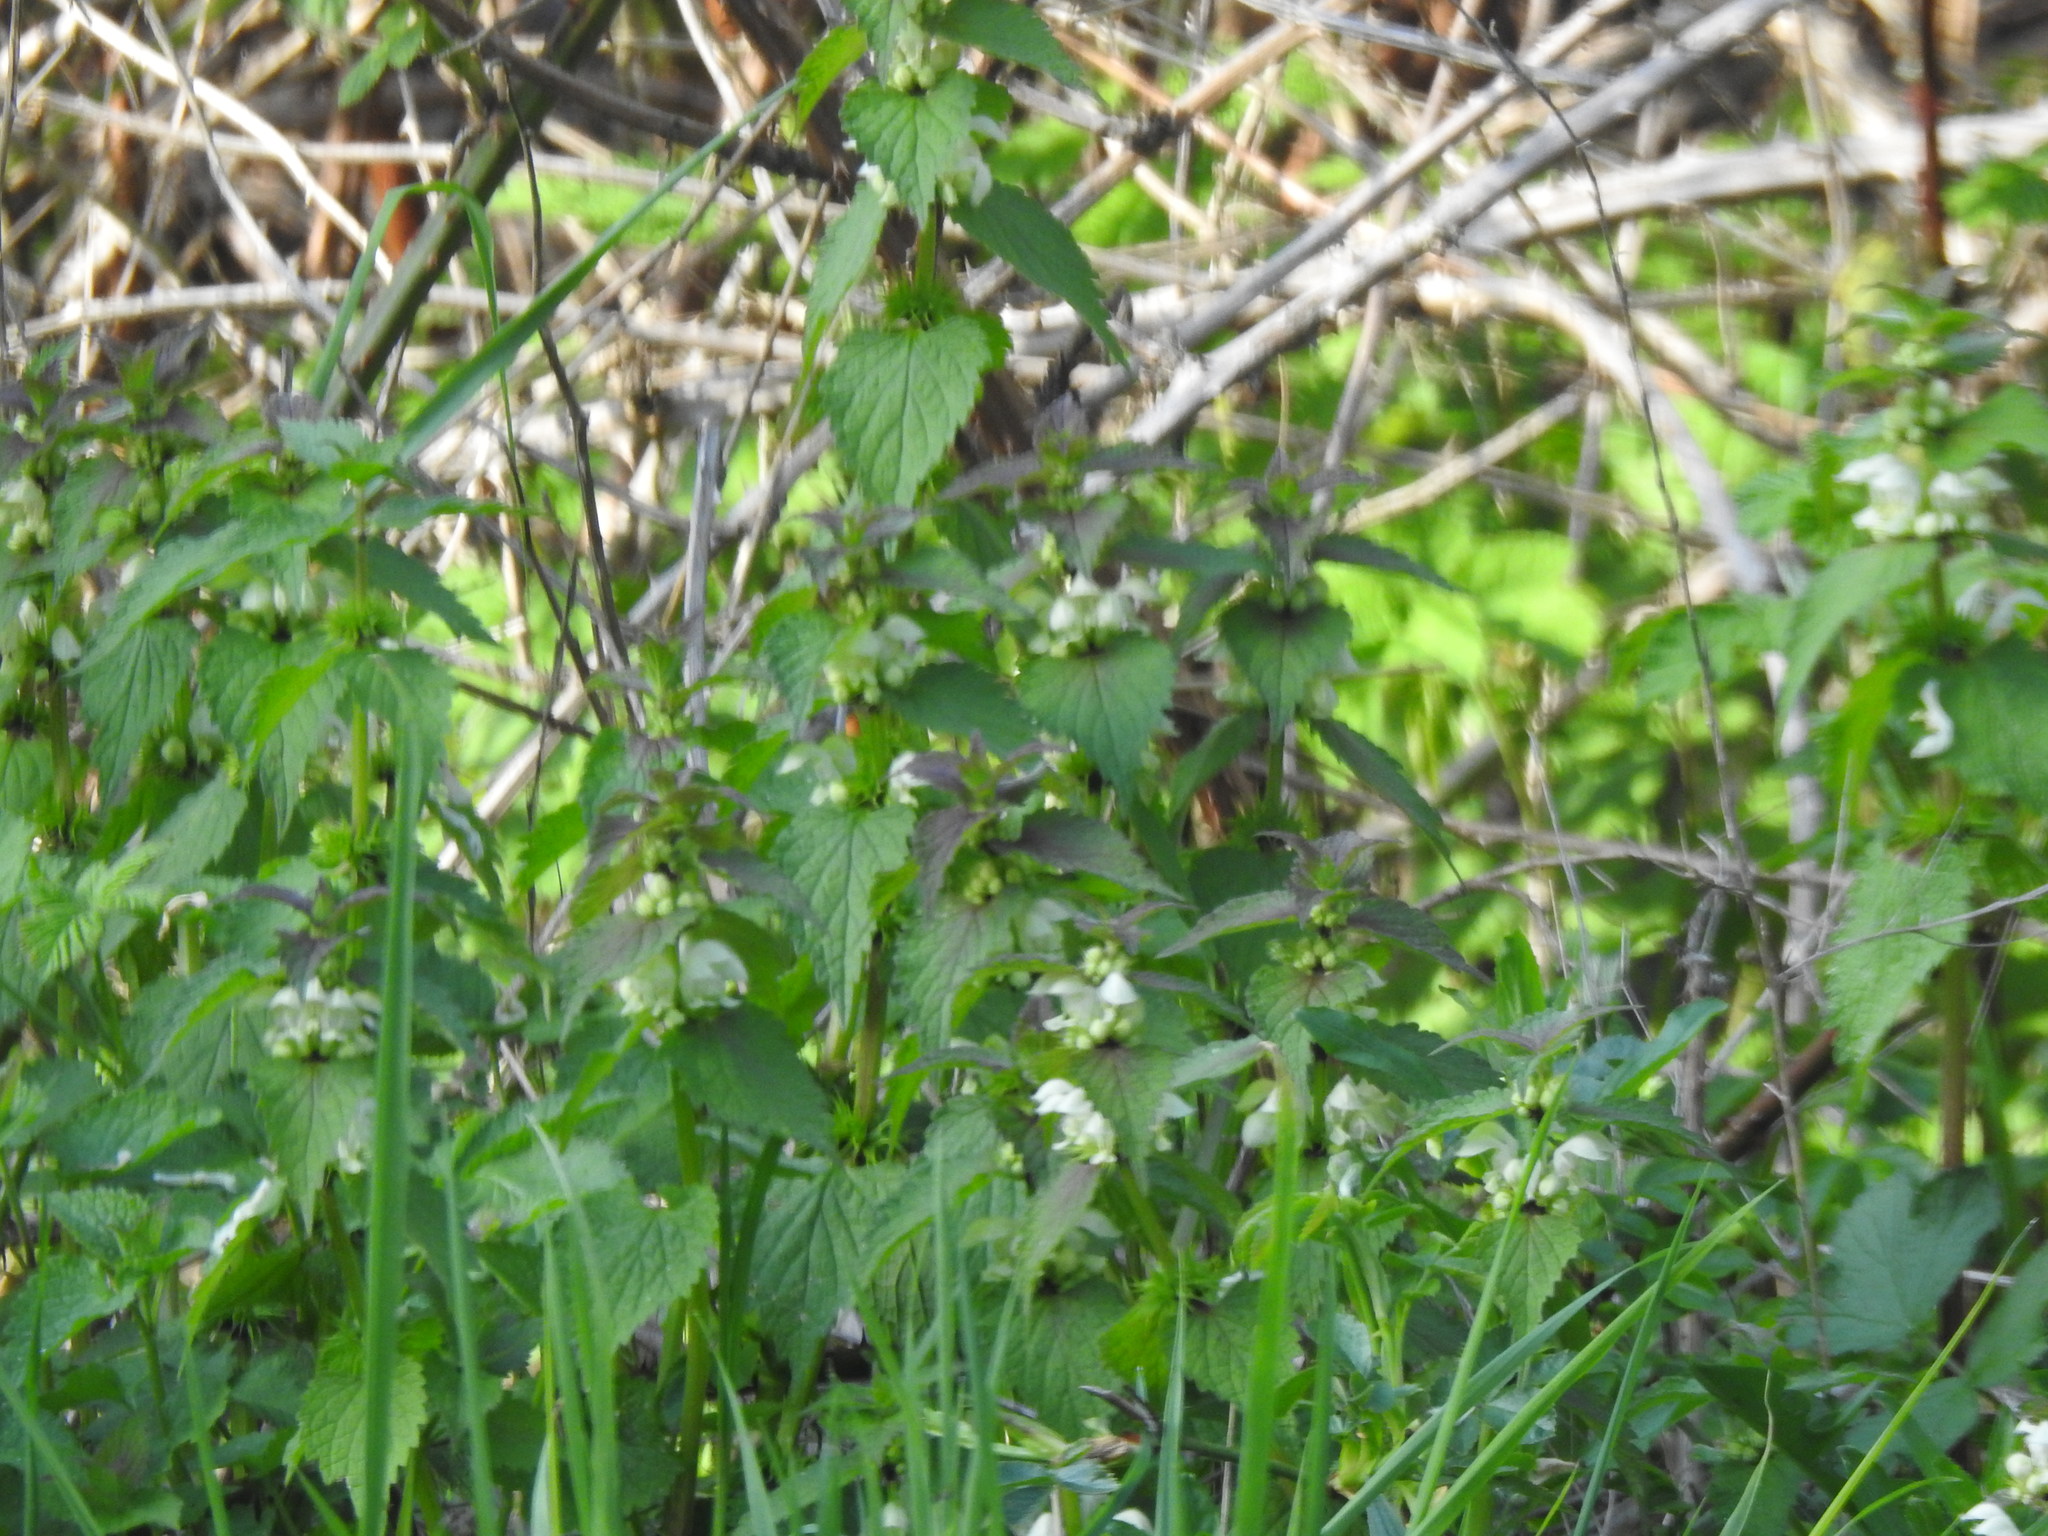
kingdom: Plantae
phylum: Tracheophyta
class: Magnoliopsida
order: Lamiales
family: Lamiaceae
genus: Lamium
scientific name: Lamium album
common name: White dead-nettle
